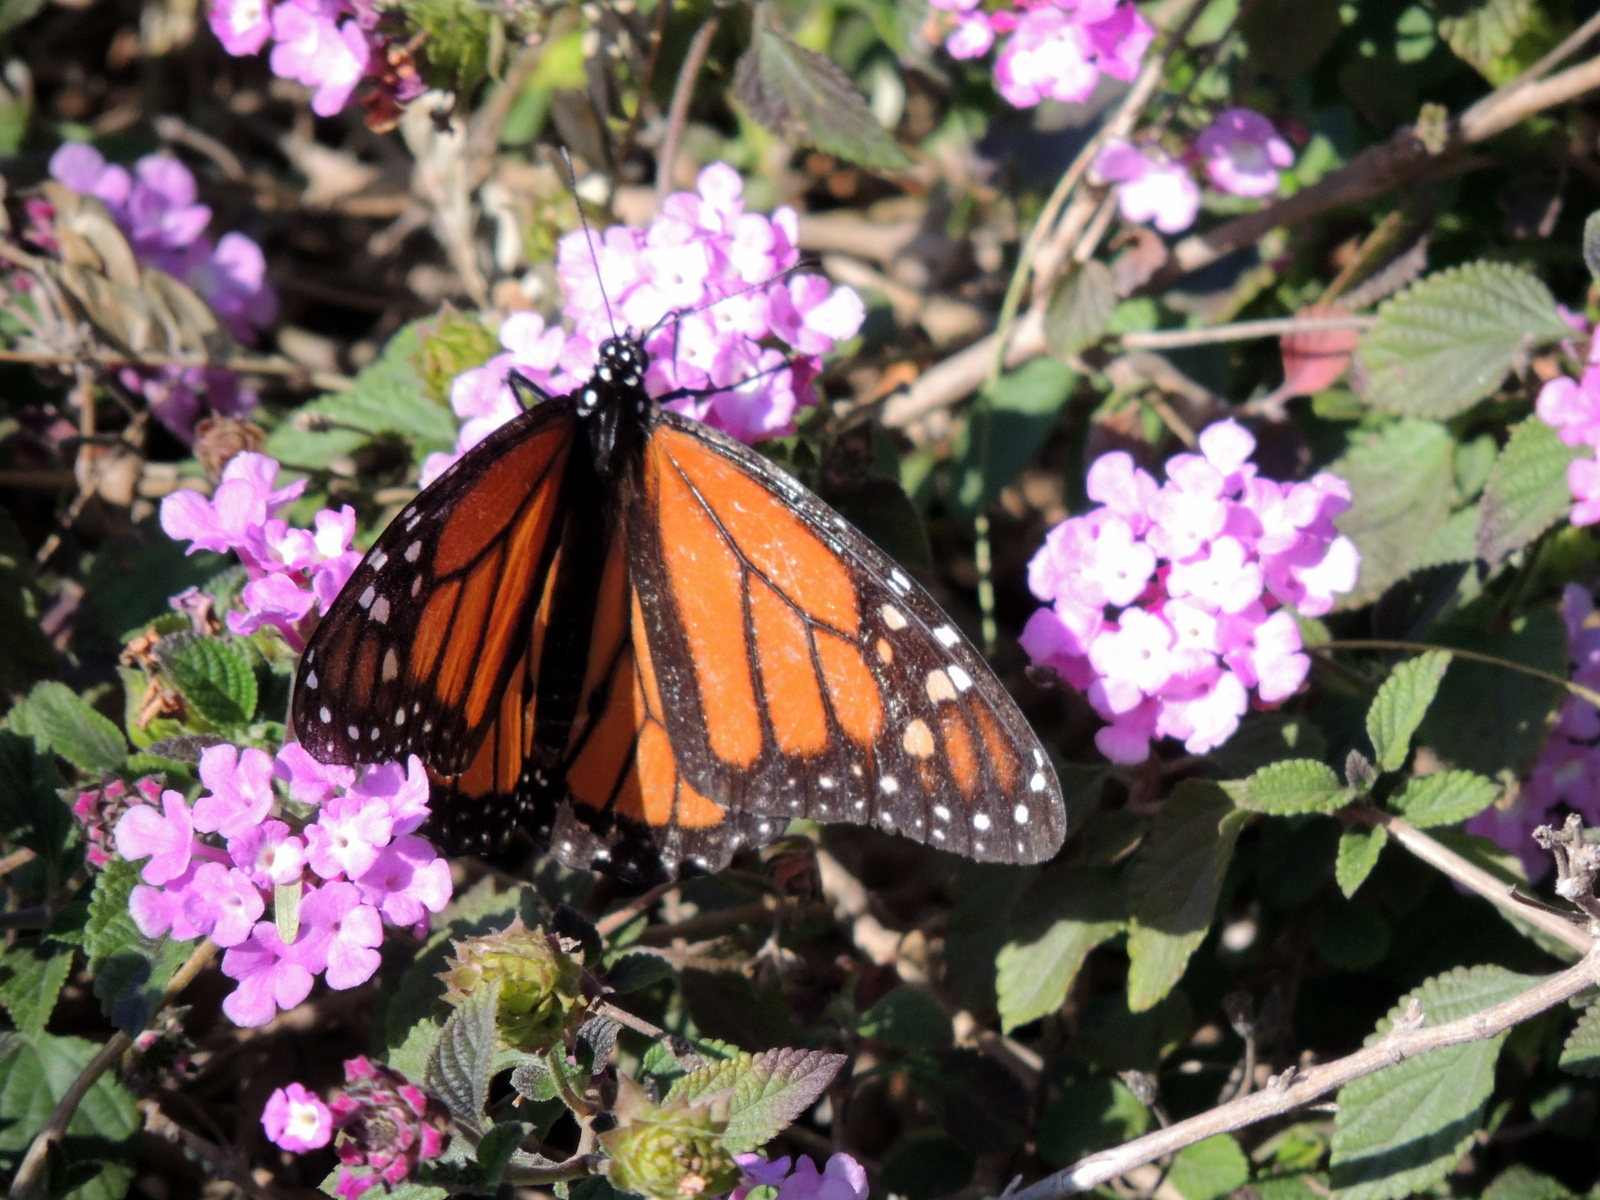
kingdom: Animalia
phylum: Arthropoda
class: Insecta
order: Lepidoptera
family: Nymphalidae
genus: Danaus
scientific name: Danaus plexippus
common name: Monarch
